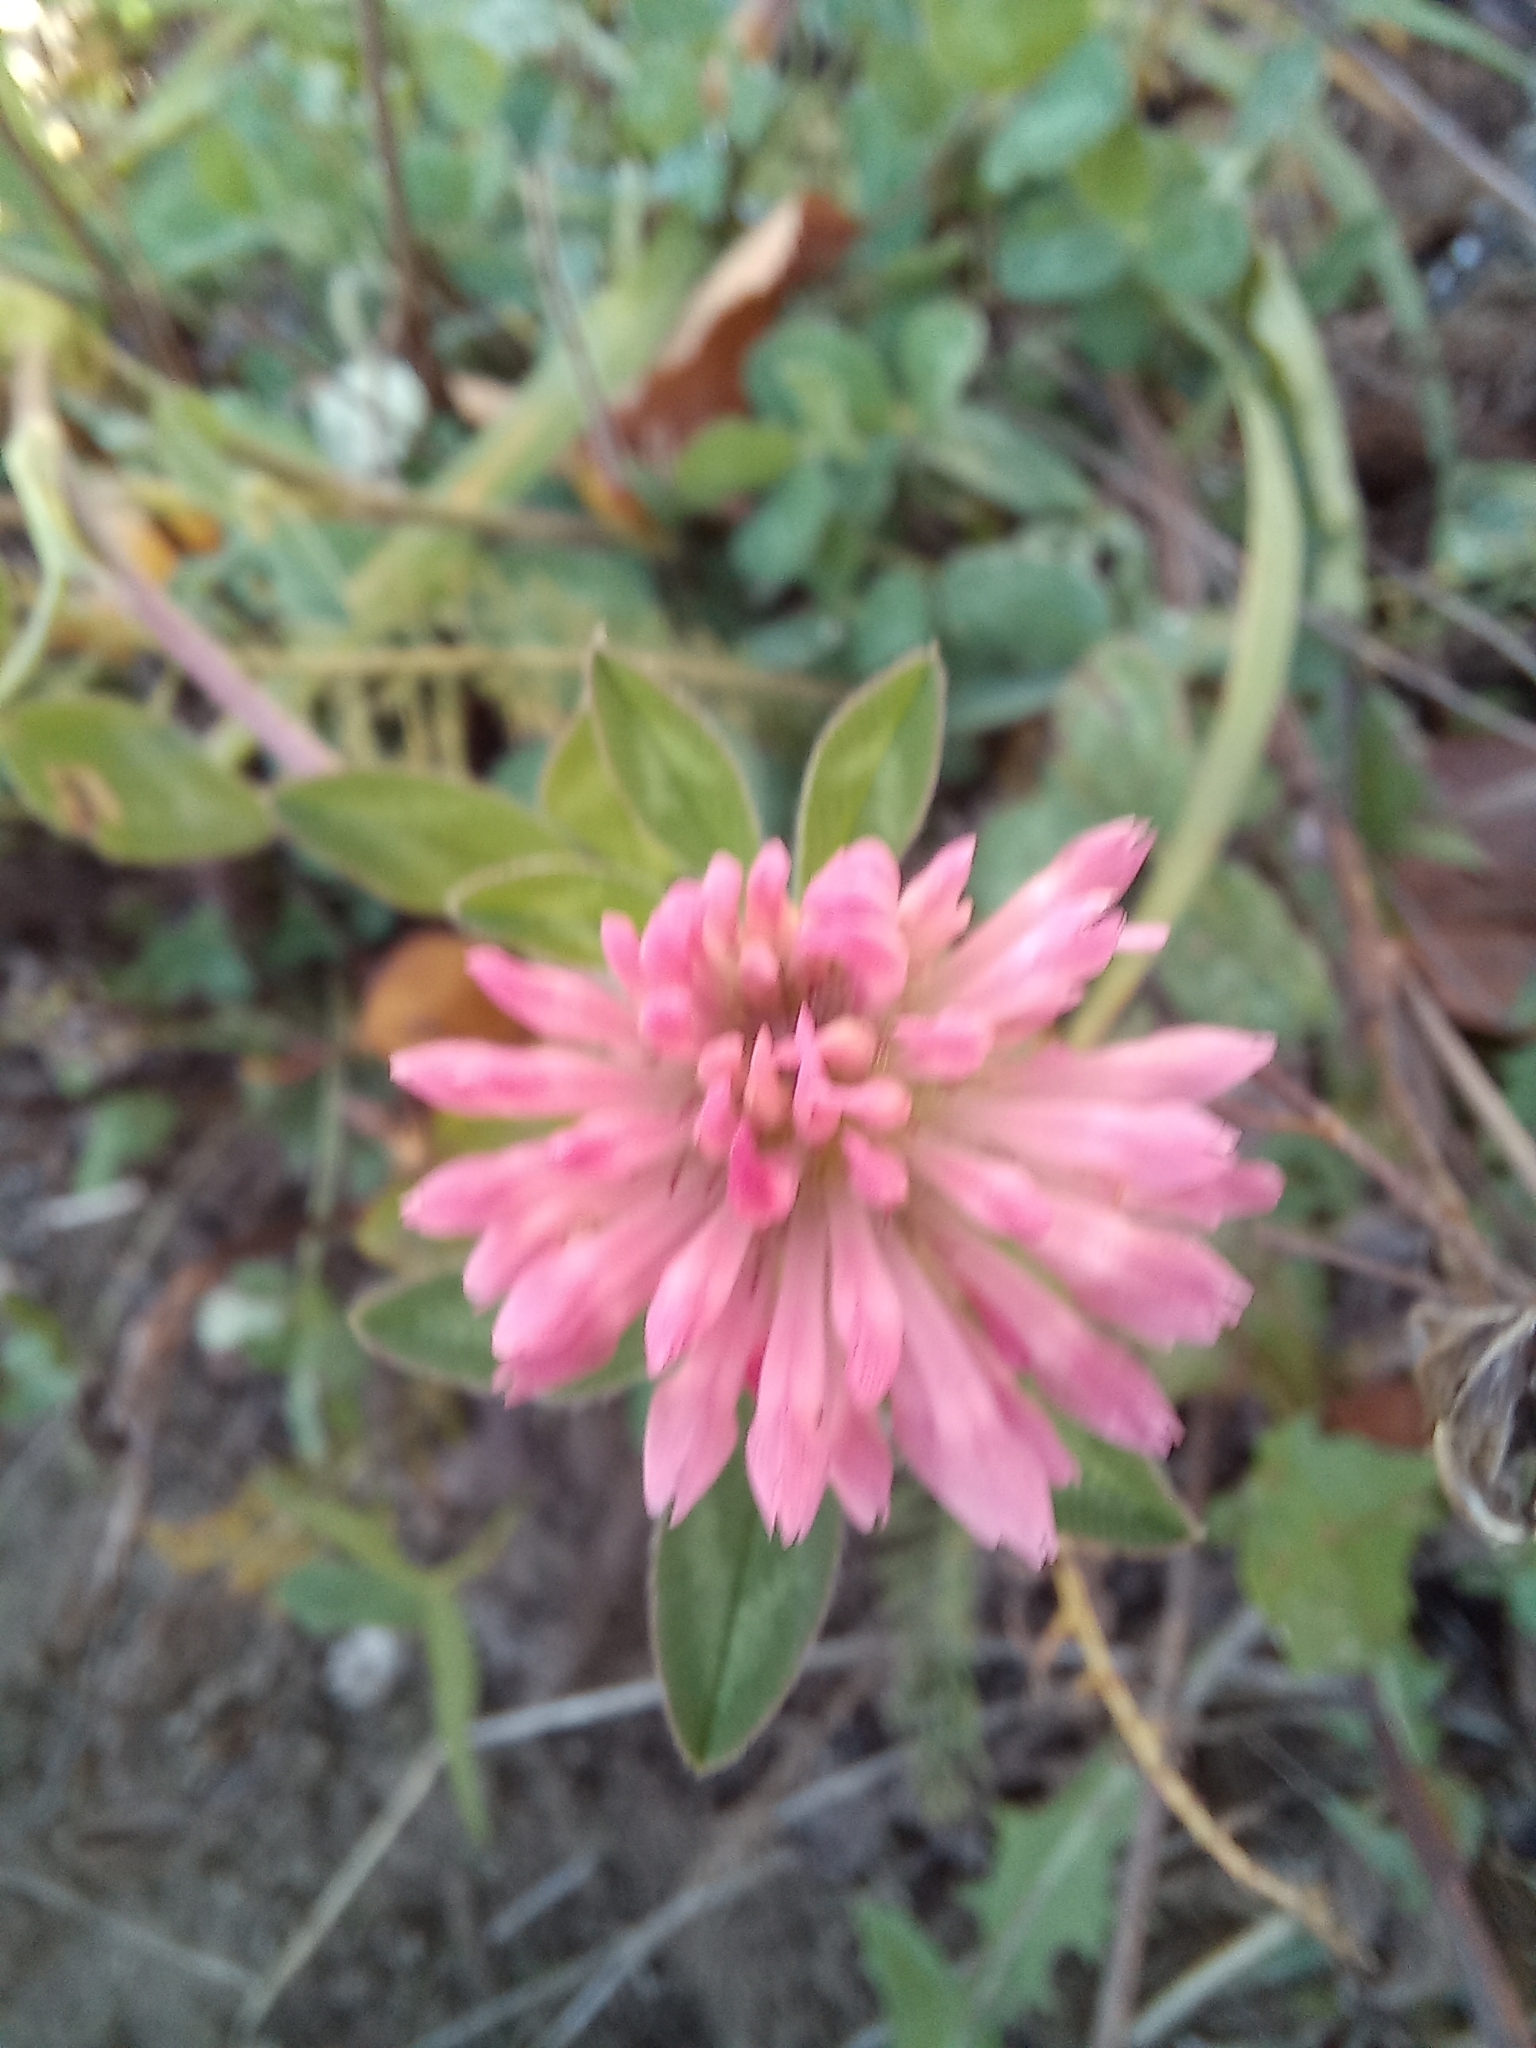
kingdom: Plantae
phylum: Tracheophyta
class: Magnoliopsida
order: Fabales
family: Fabaceae
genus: Trifolium
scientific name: Trifolium pratense
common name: Red clover
